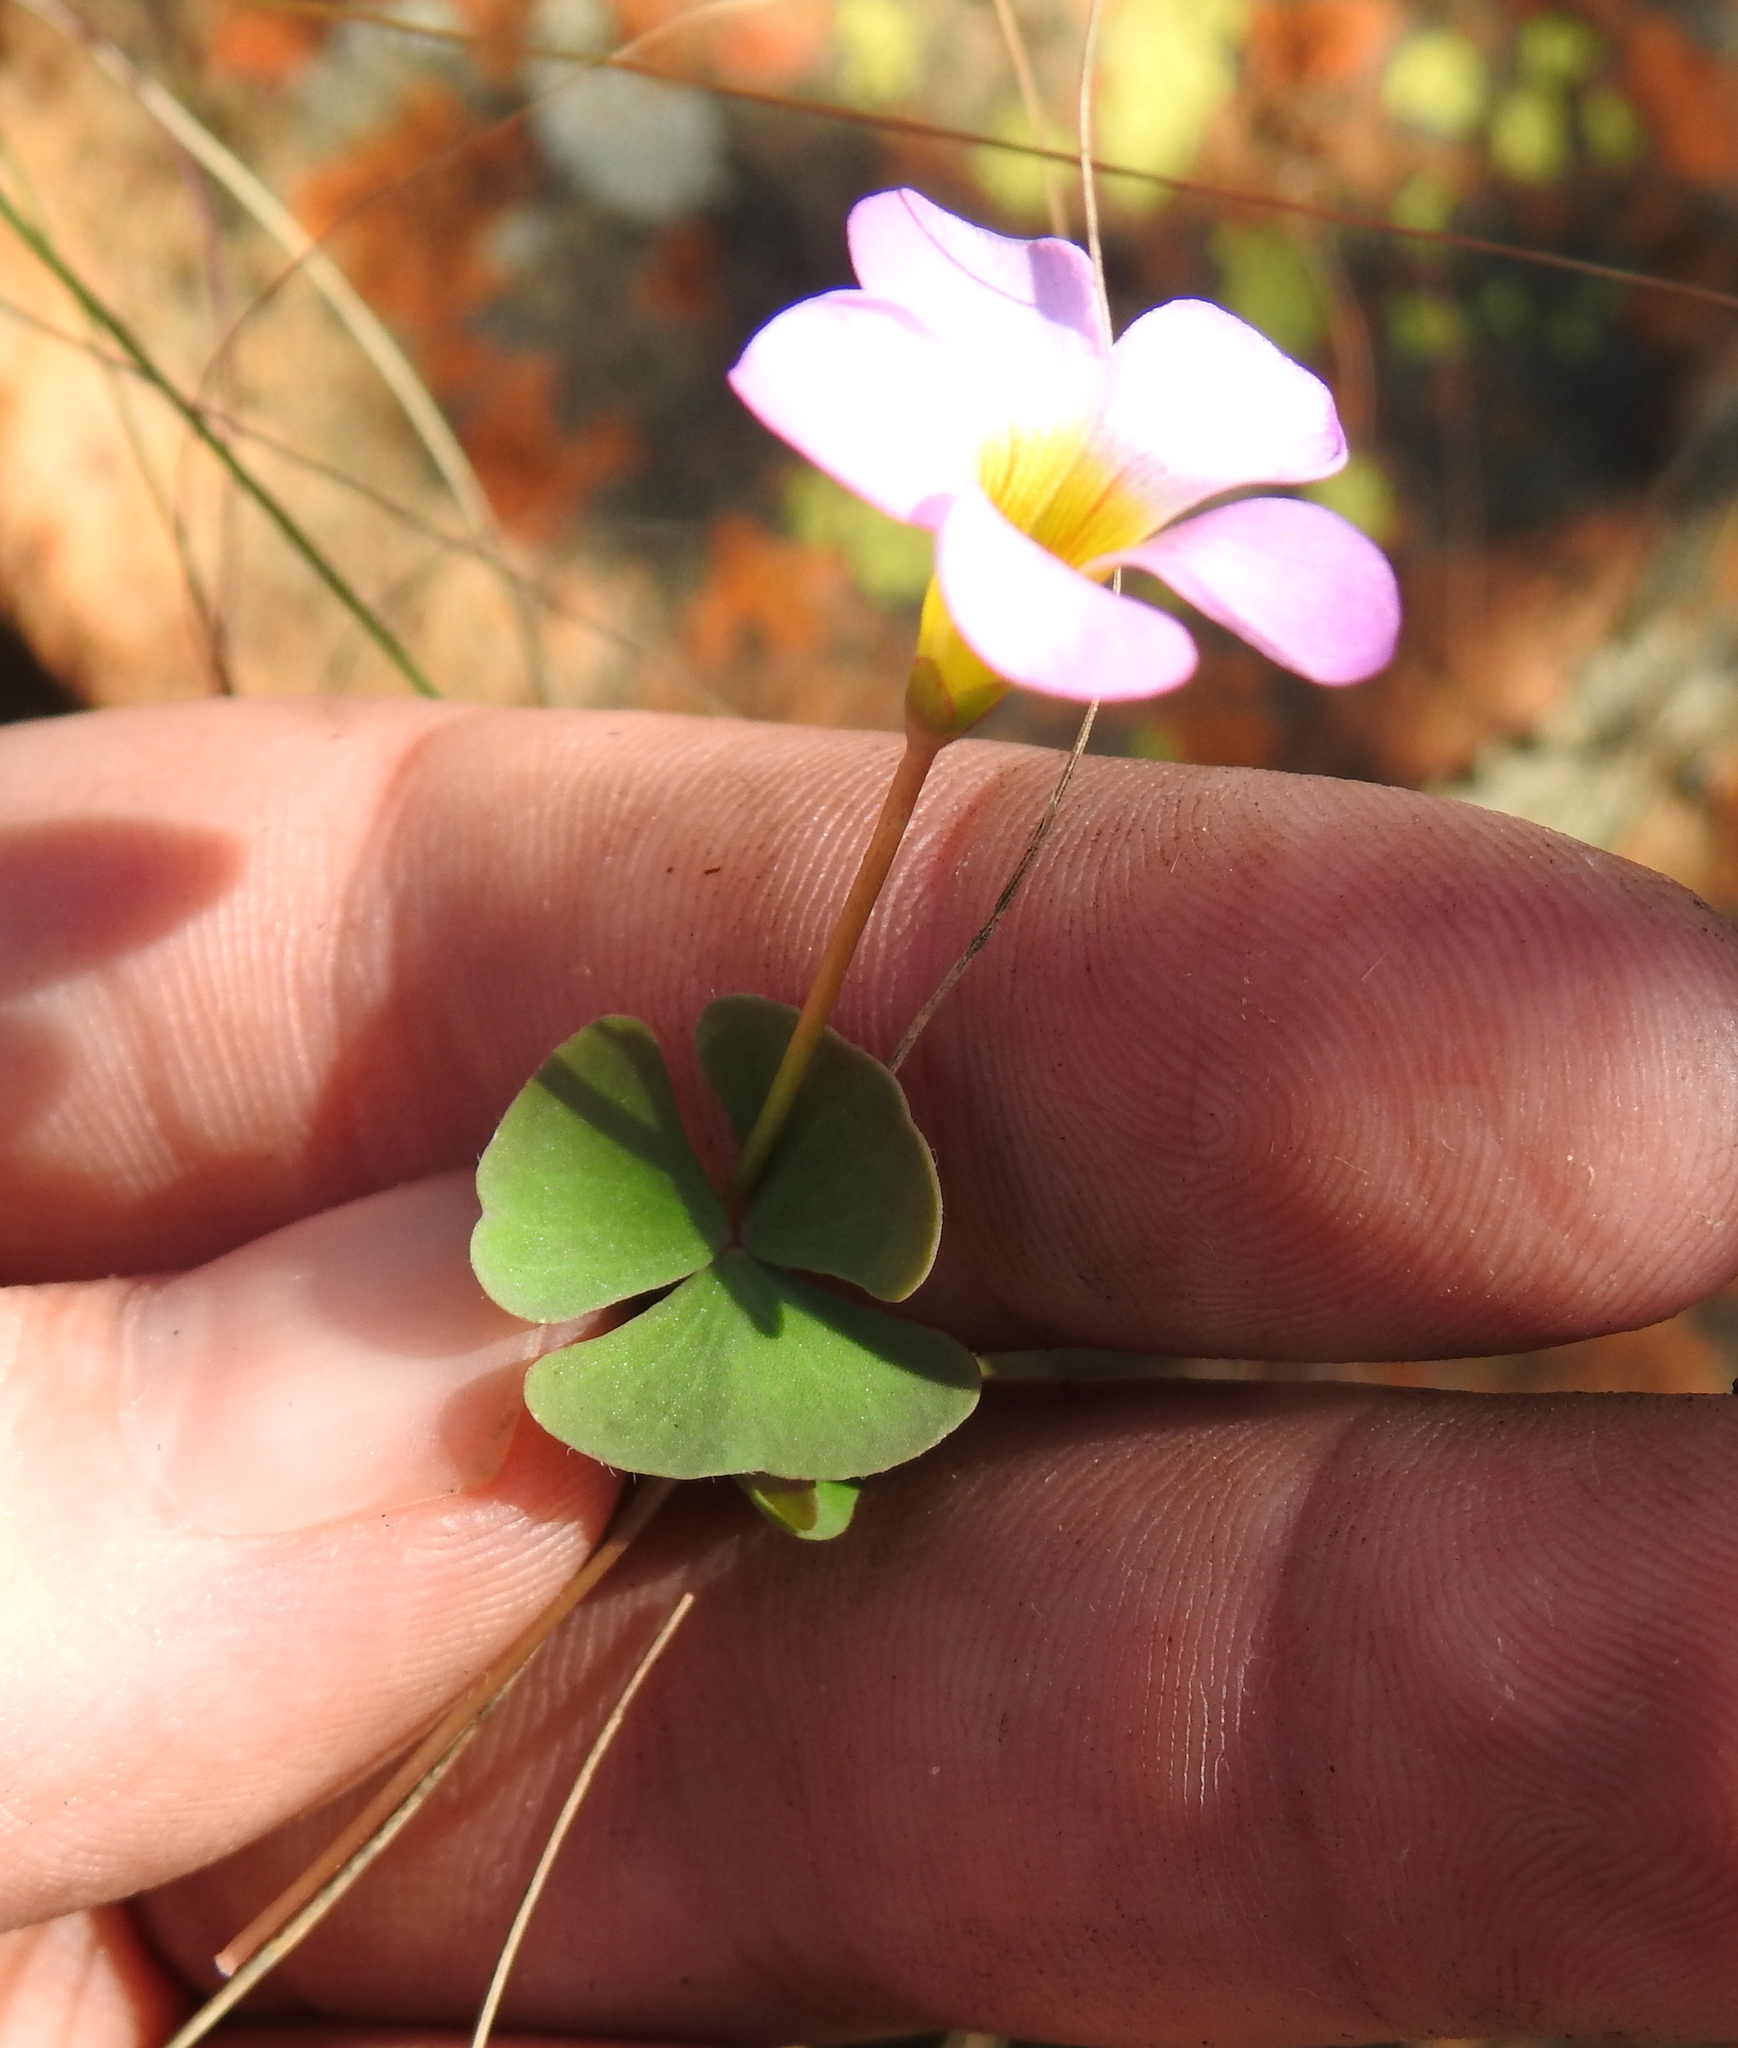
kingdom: Plantae
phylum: Tracheophyta
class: Magnoliopsida
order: Oxalidales
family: Oxalidaceae
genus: Oxalis
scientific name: Oxalis obliquifolia
